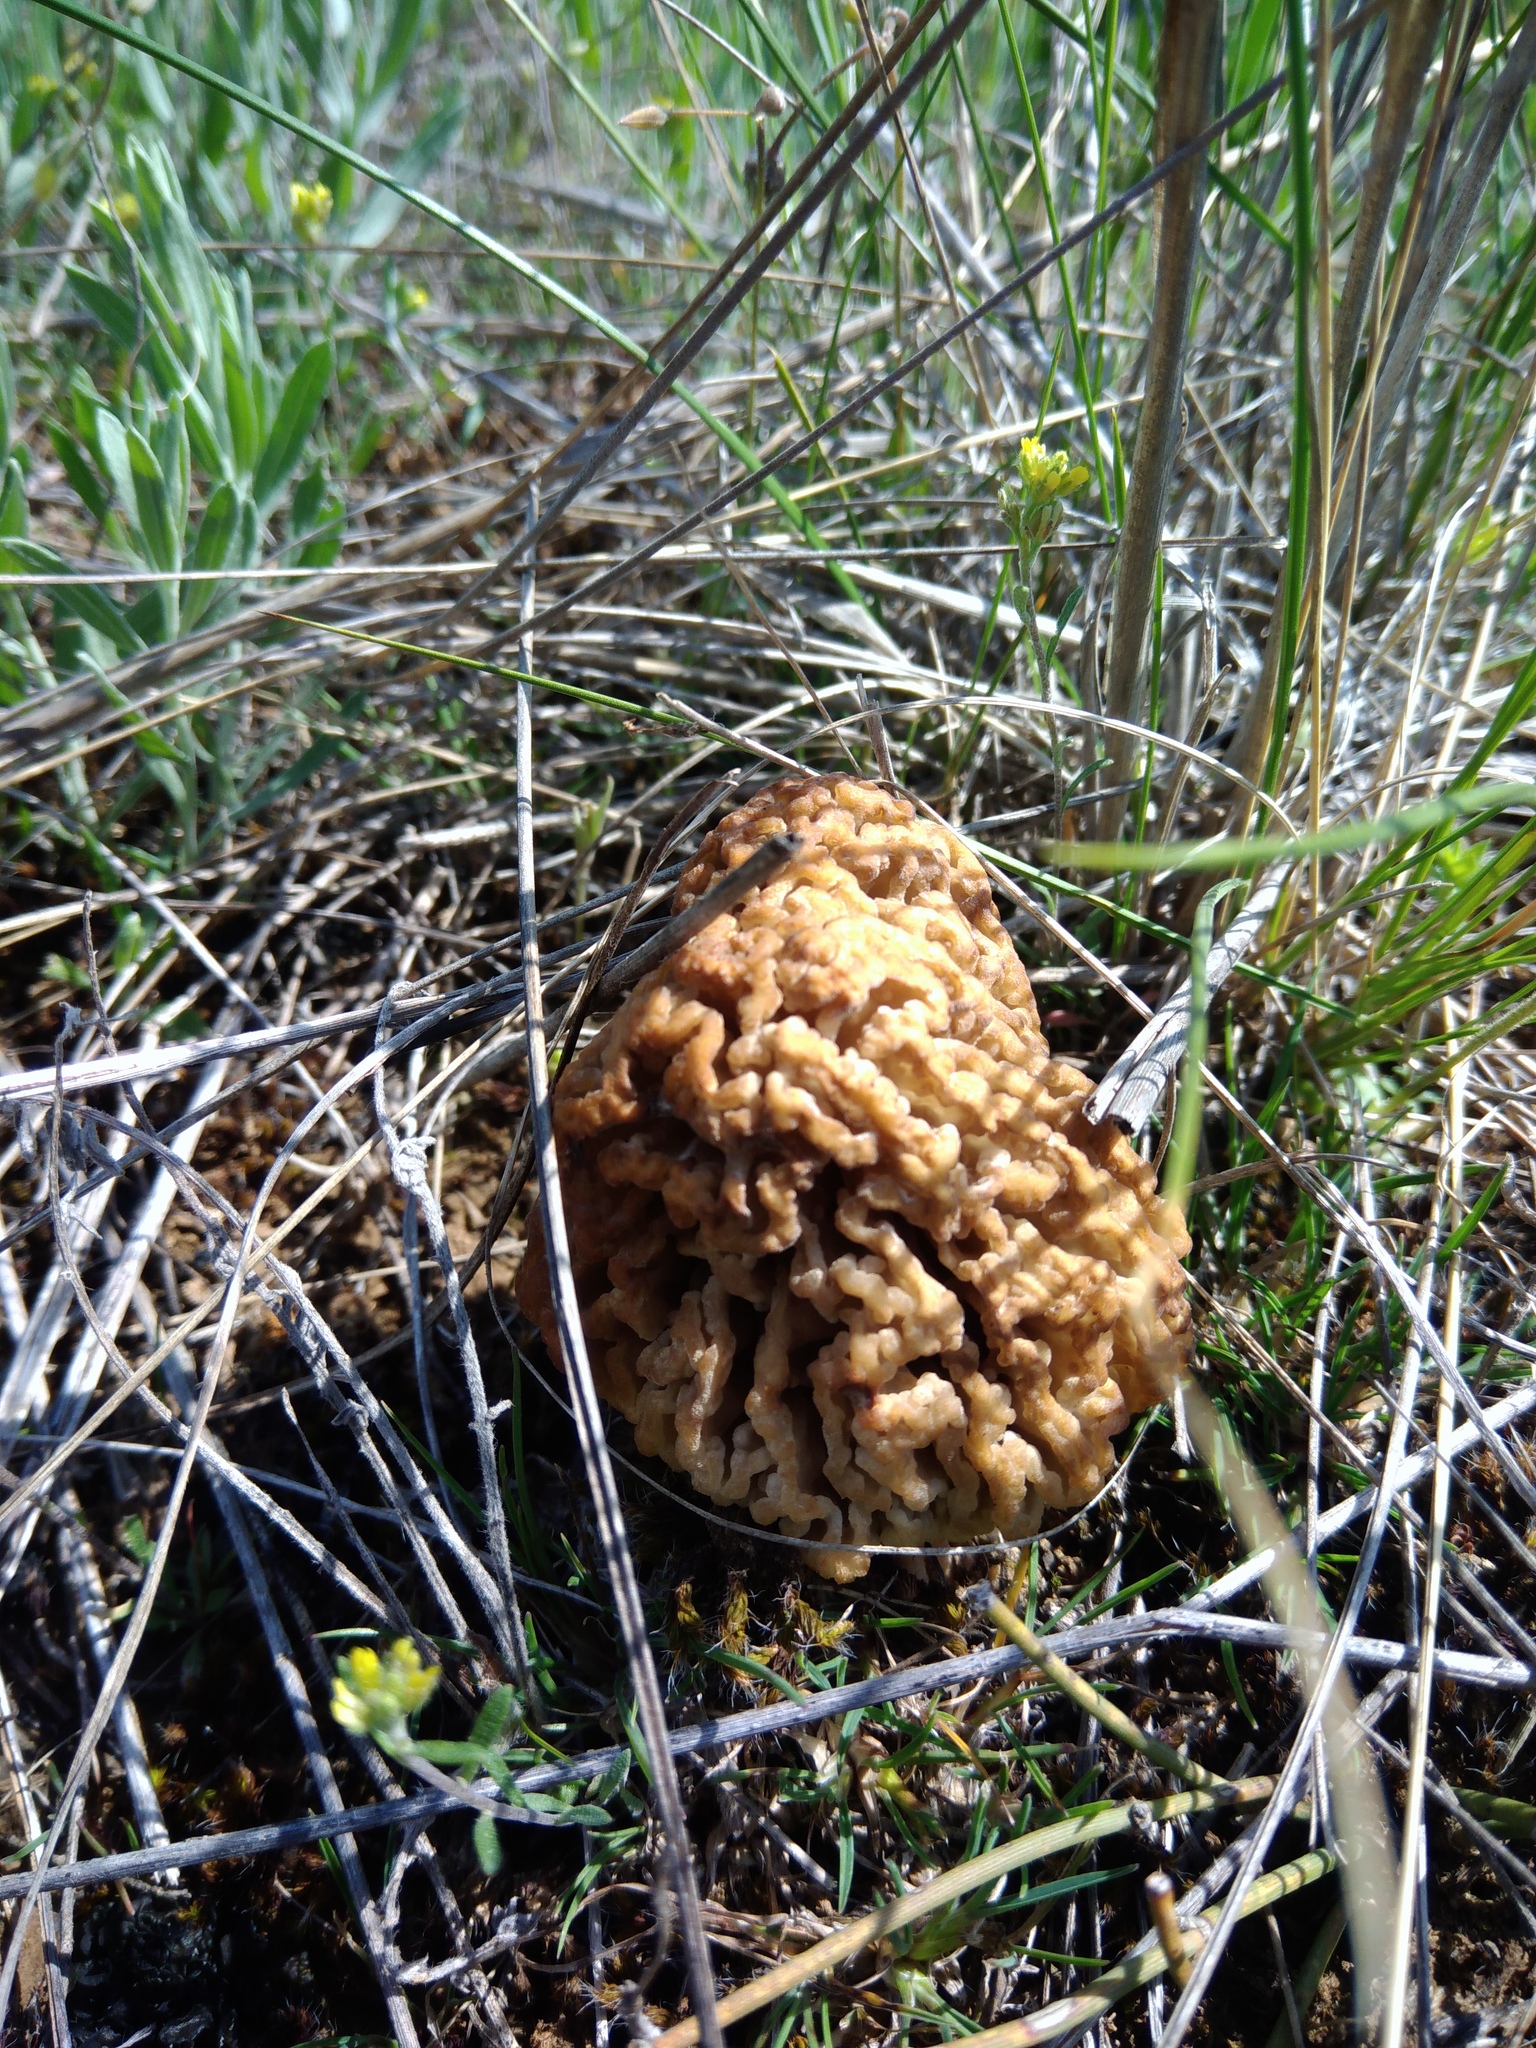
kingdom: Fungi
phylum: Ascomycota
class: Pezizomycetes
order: Pezizales
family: Morchellaceae
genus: Morchella
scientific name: Morchella steppicola
